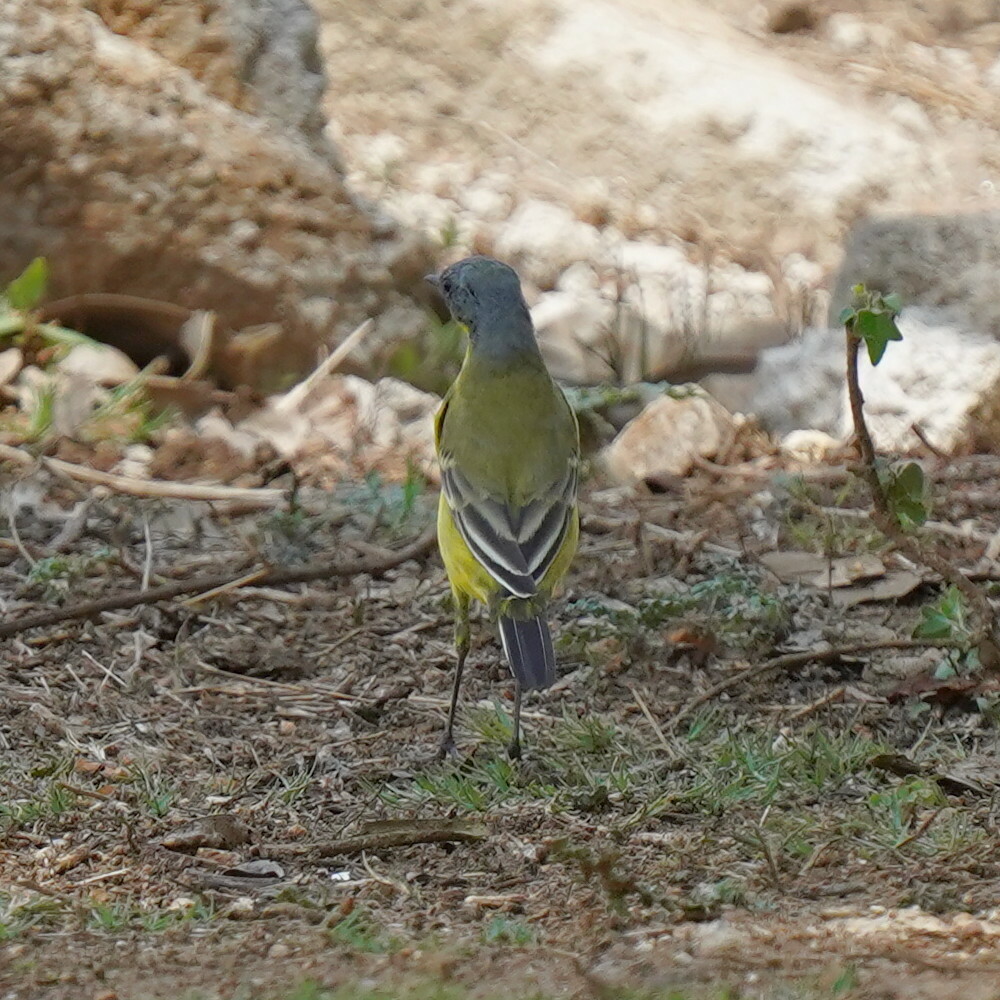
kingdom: Animalia
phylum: Chordata
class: Aves
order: Passeriformes
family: Motacillidae
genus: Motacilla
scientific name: Motacilla flava
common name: Western yellow wagtail
